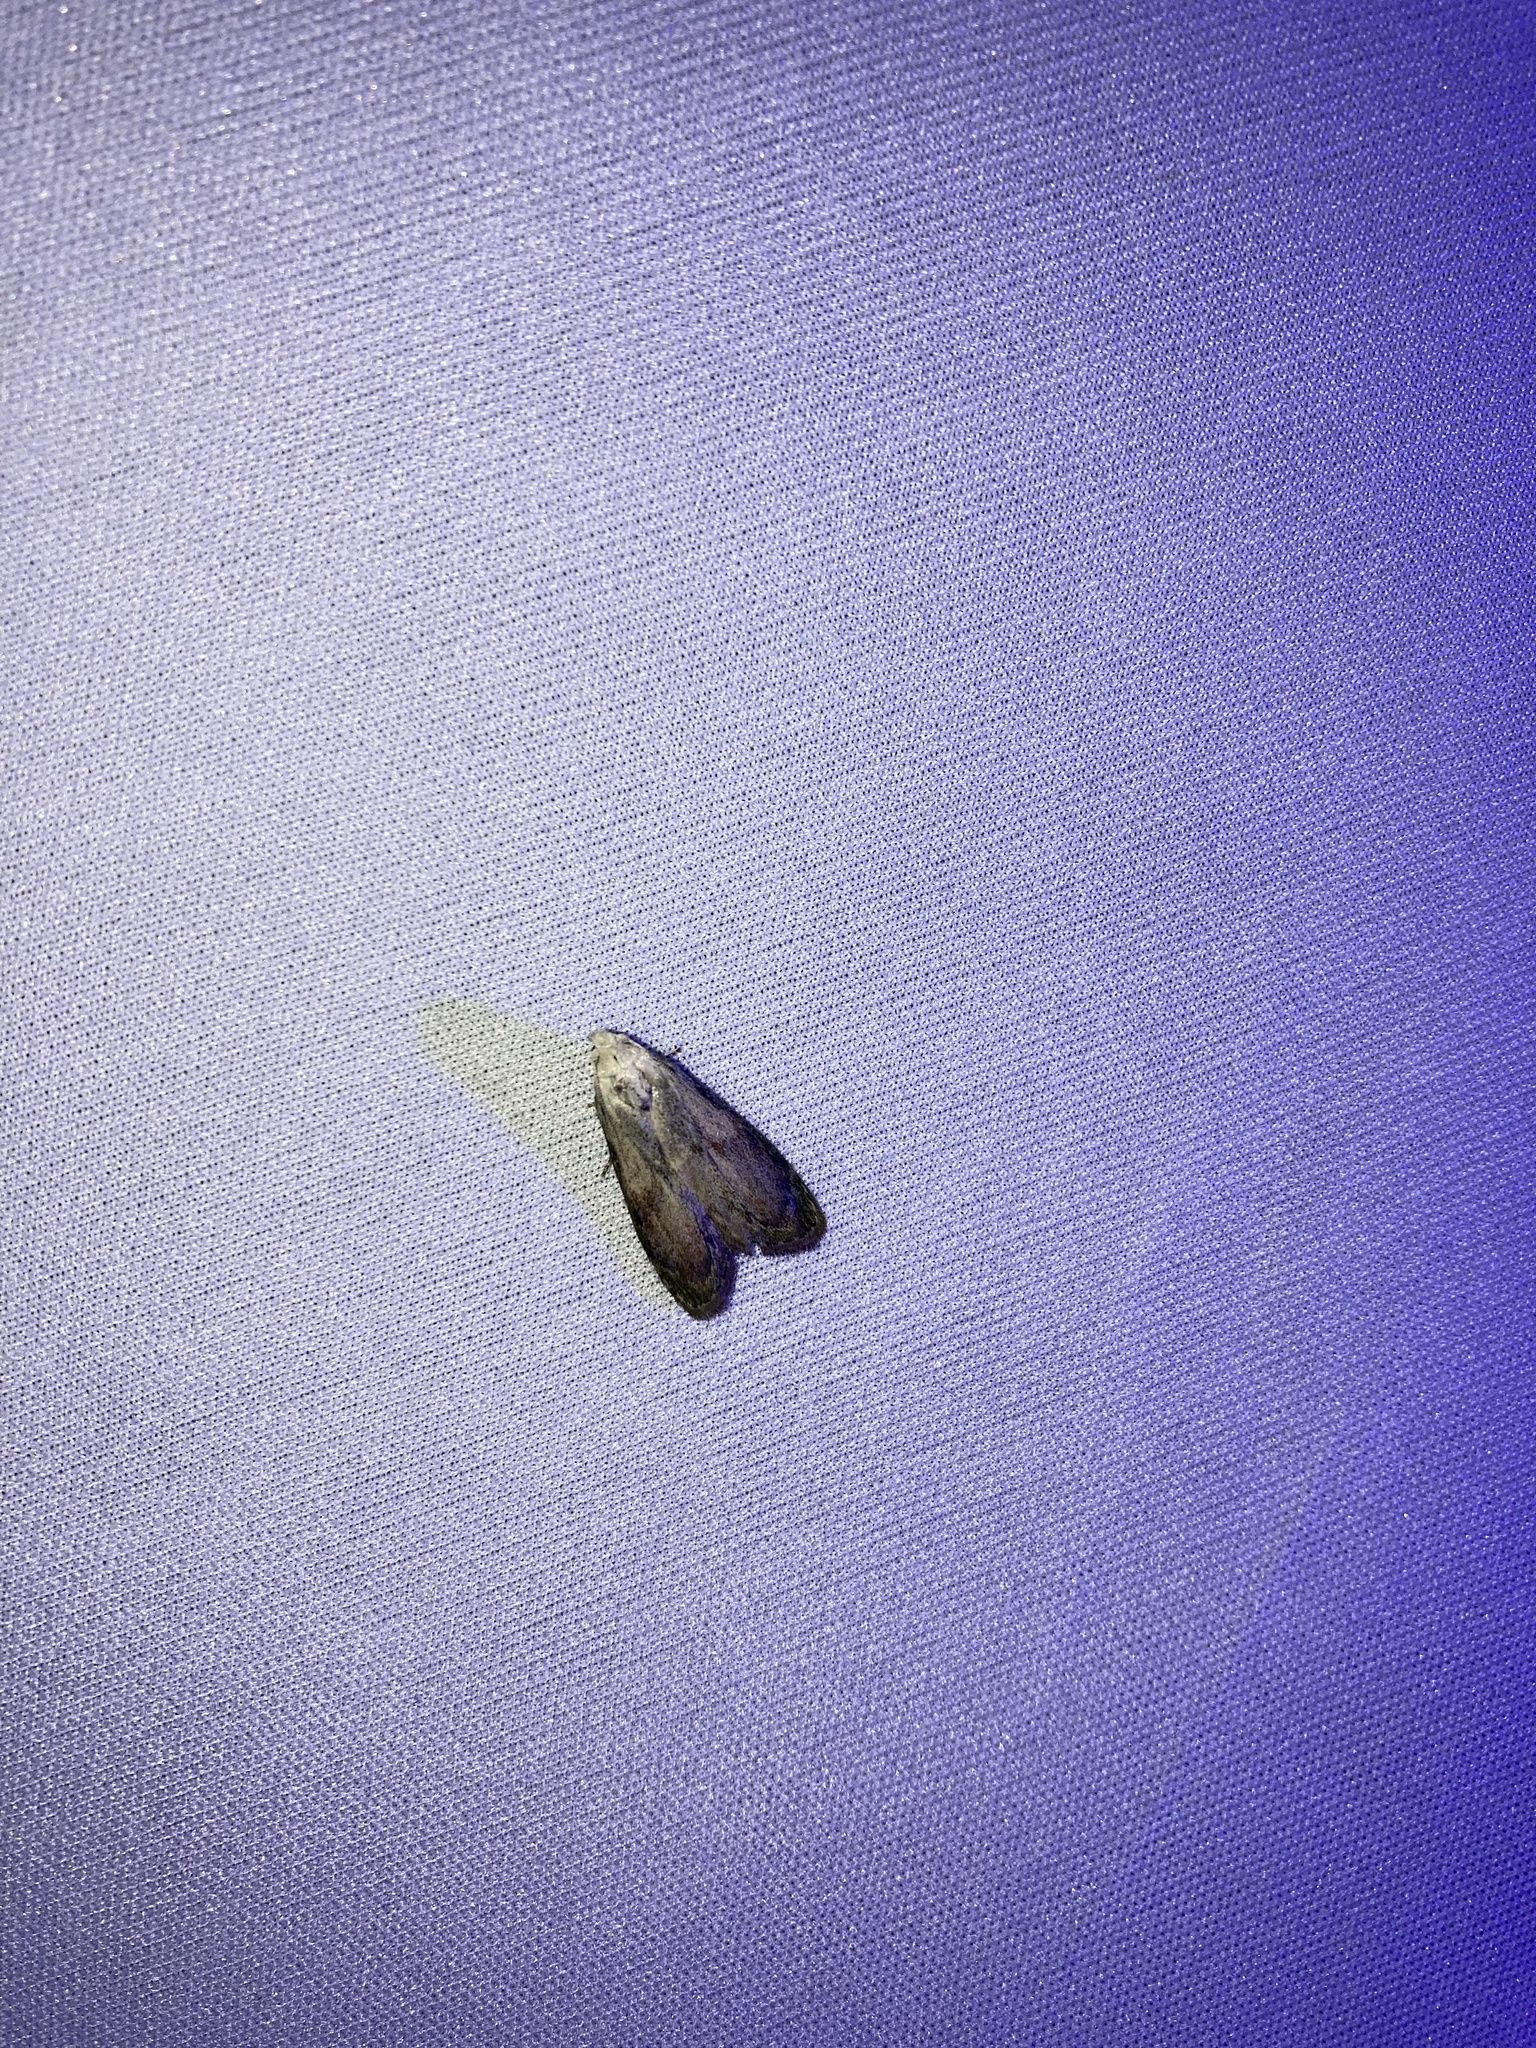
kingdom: Animalia
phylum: Arthropoda
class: Insecta
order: Lepidoptera
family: Pyralidae
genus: Aphomia
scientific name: Aphomia sociella
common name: Bee moth
